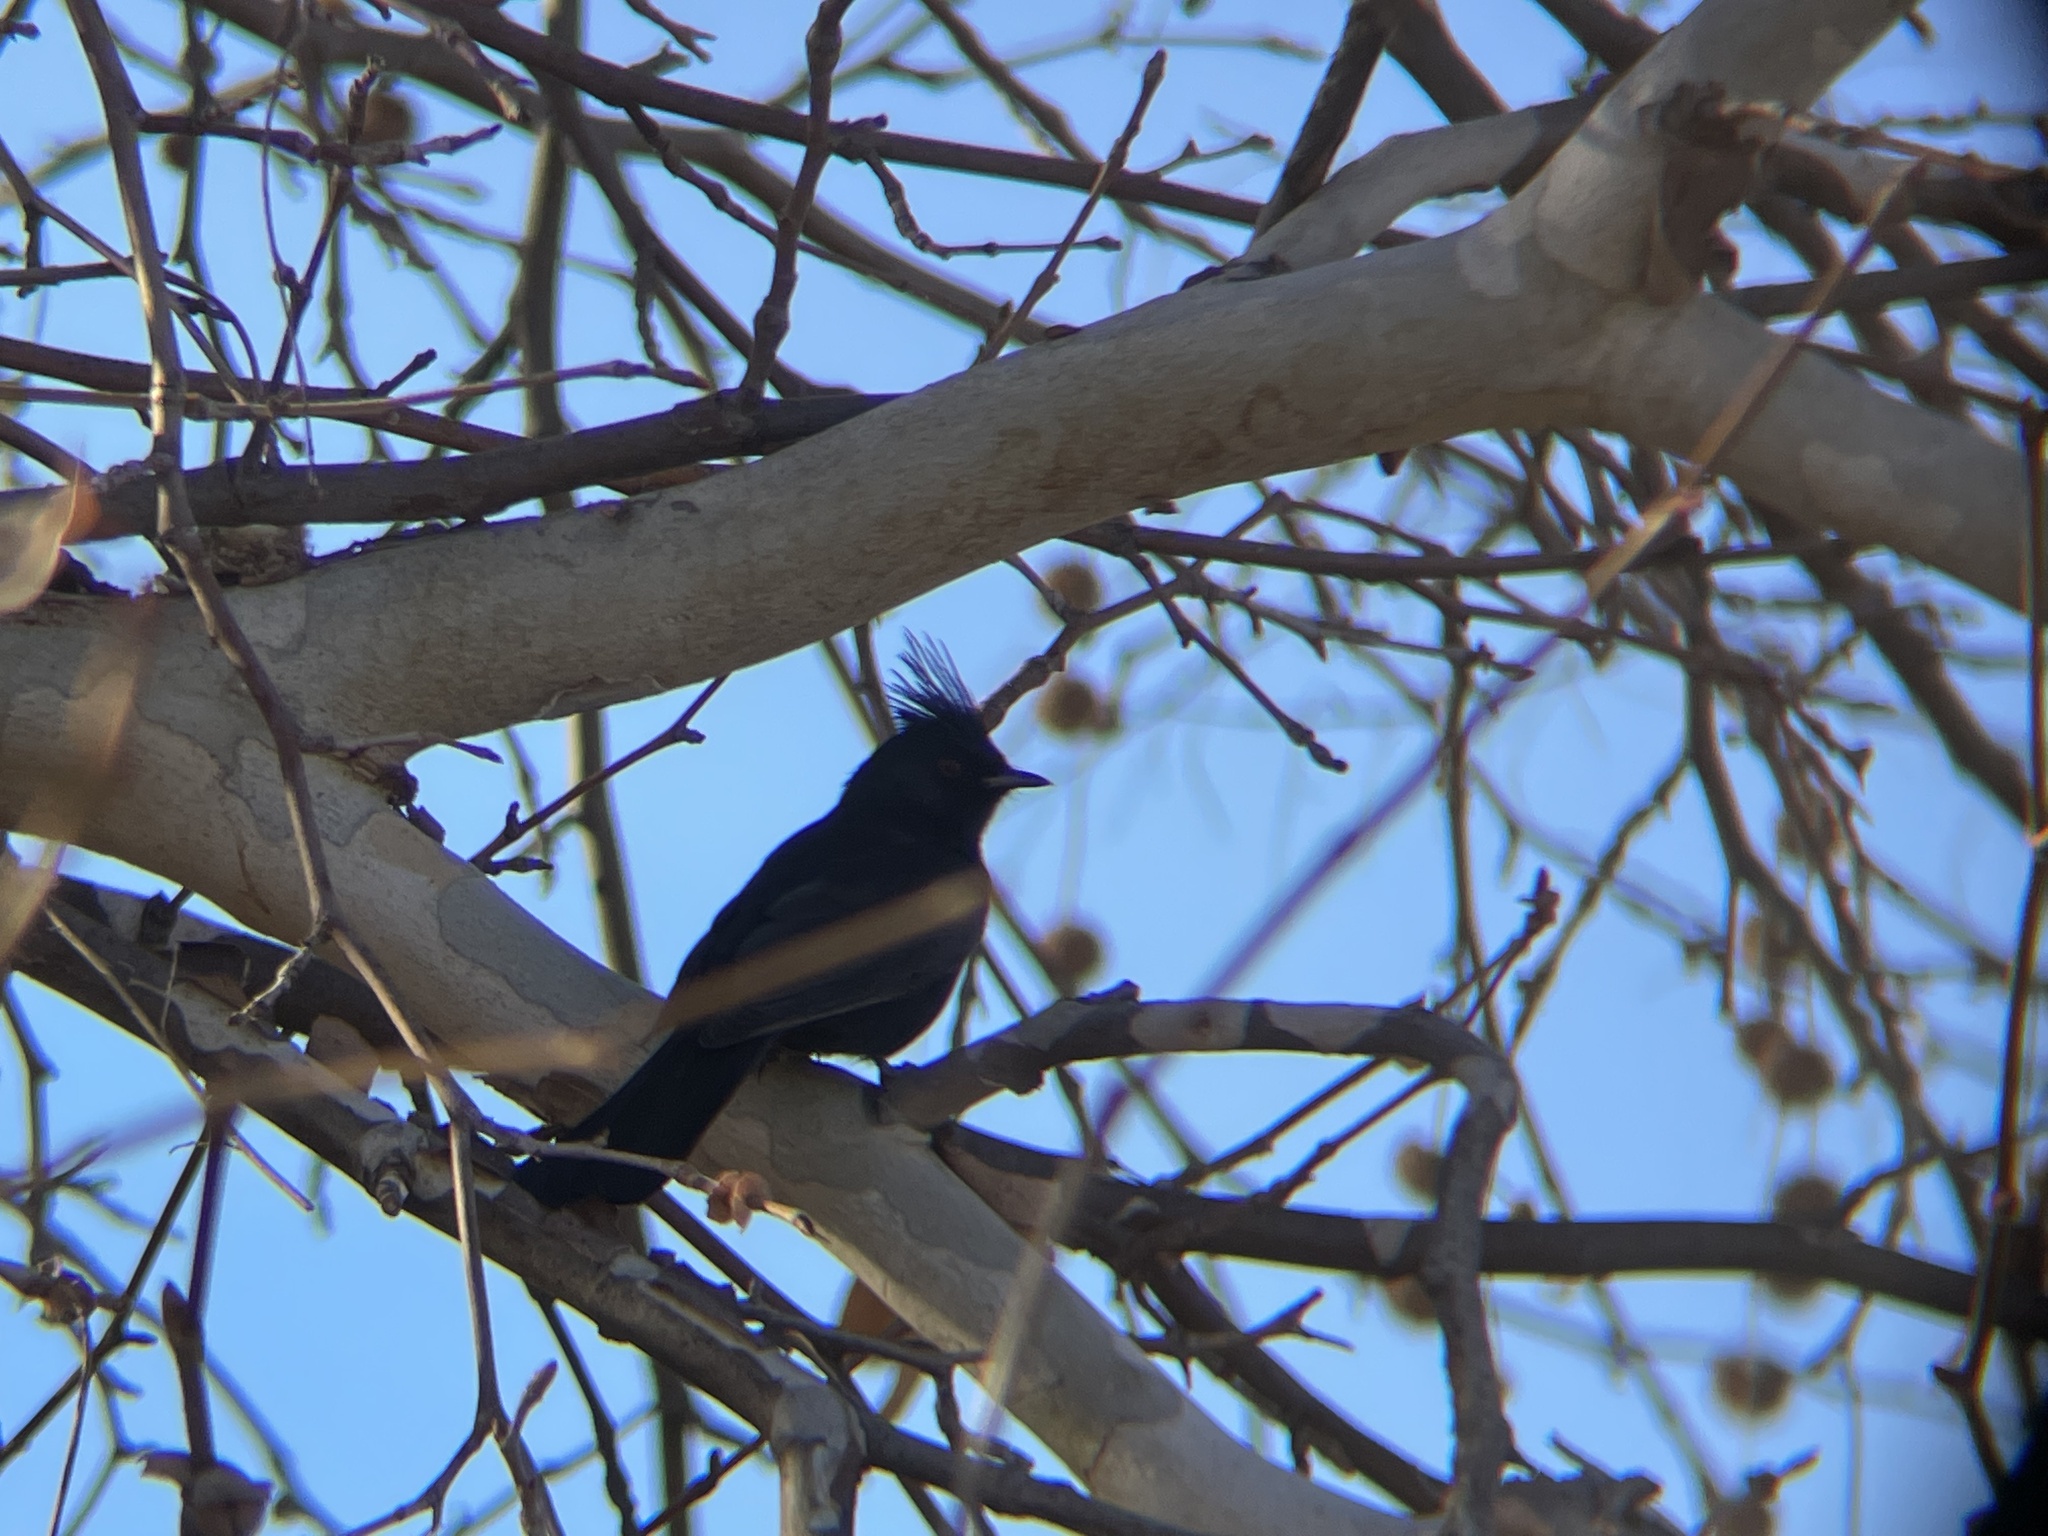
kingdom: Animalia
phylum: Chordata
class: Aves
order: Passeriformes
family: Ptilogonatidae
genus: Phainopepla
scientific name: Phainopepla nitens
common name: Phainopepla
